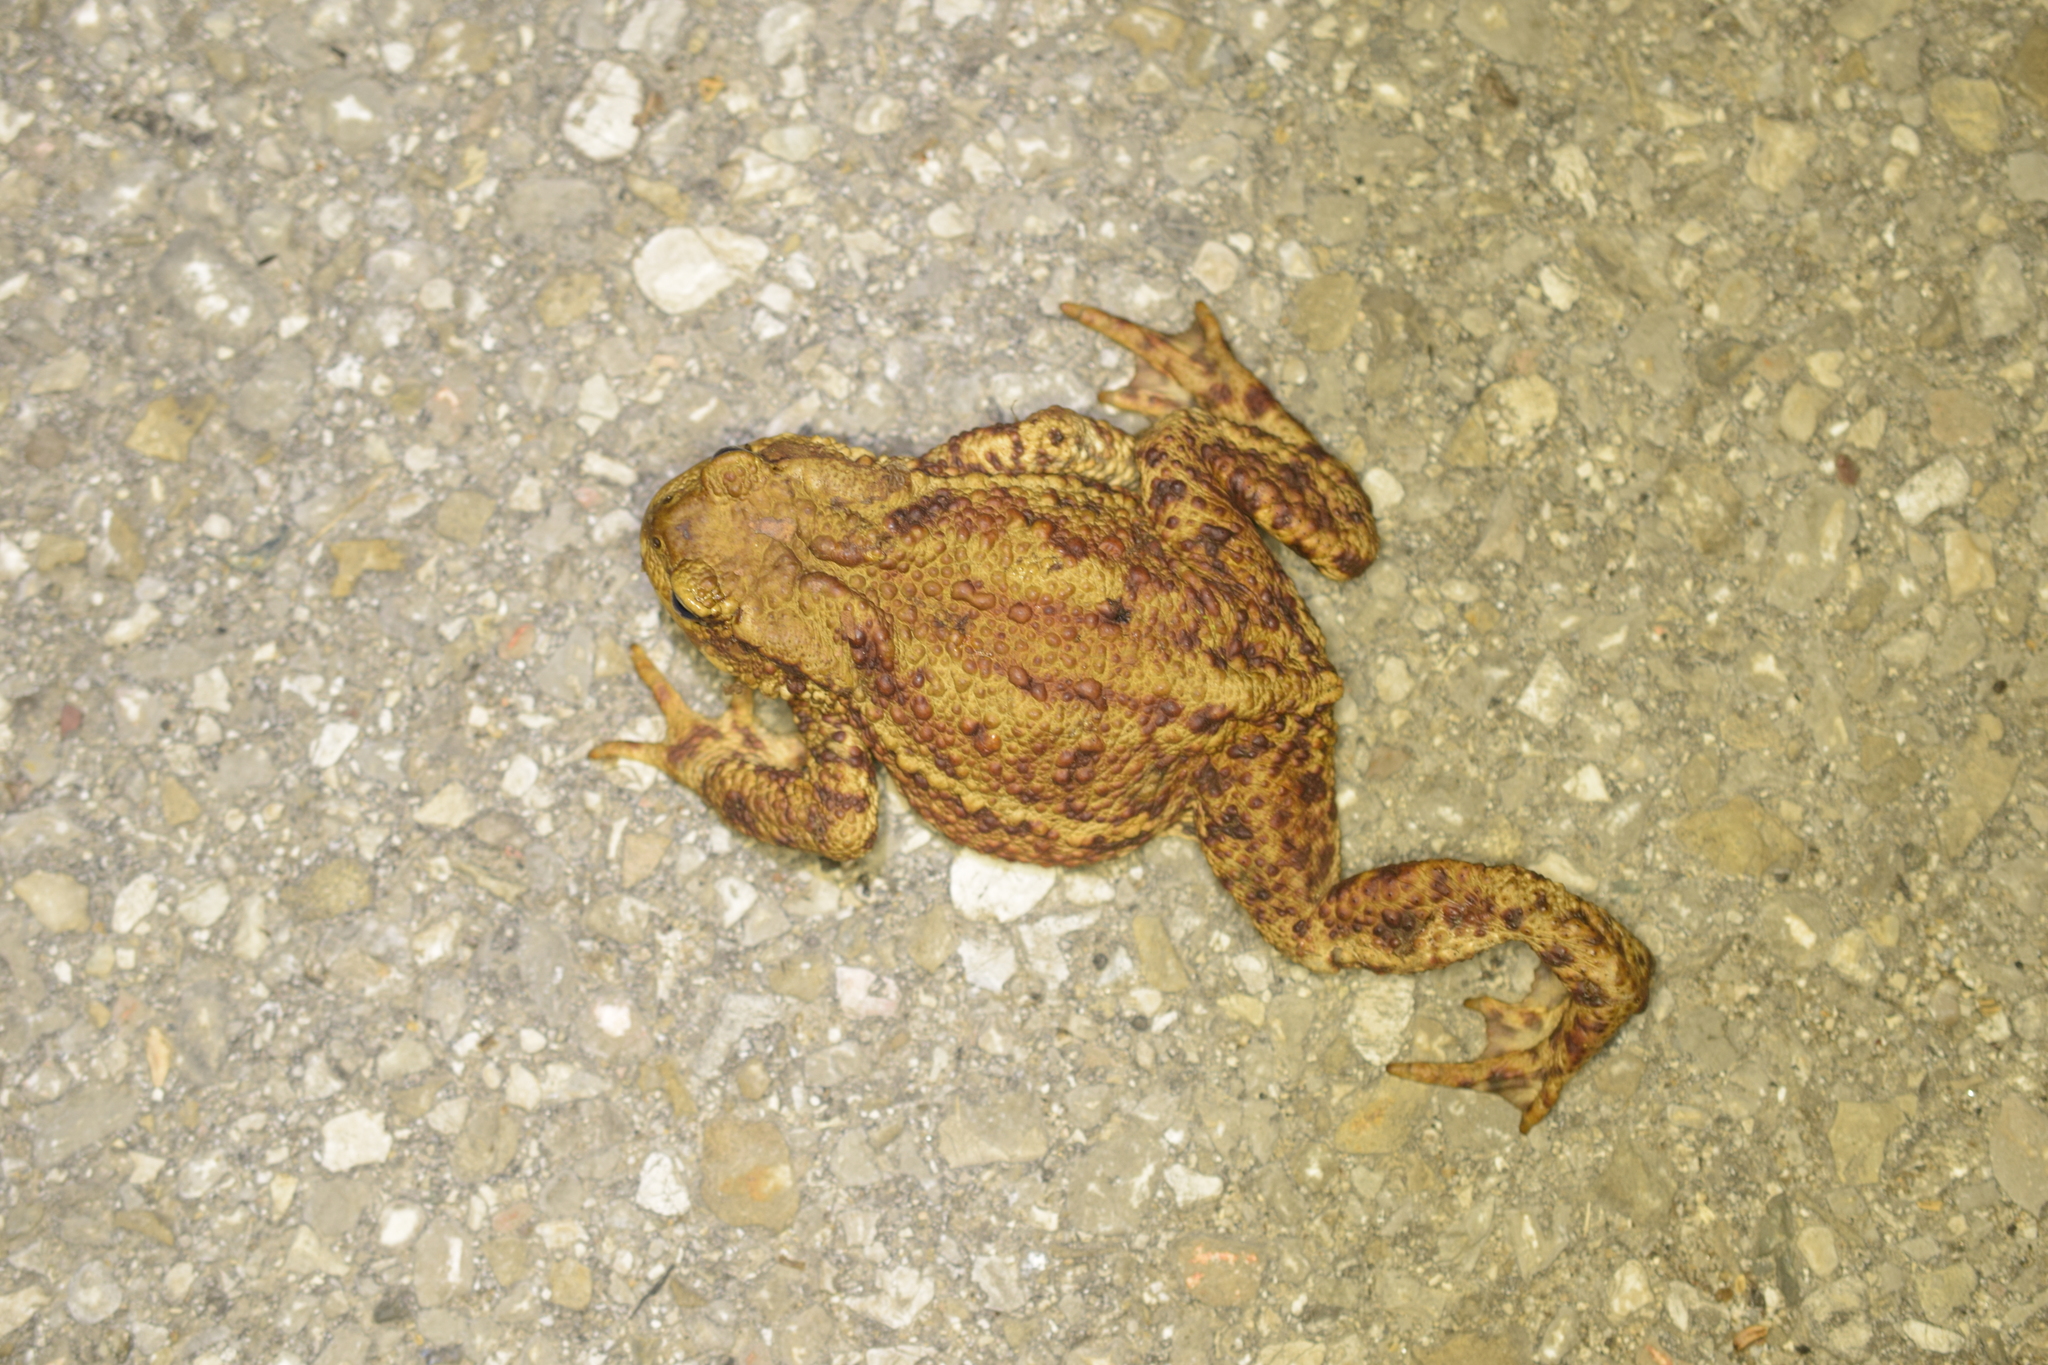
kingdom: Animalia
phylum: Chordata
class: Amphibia
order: Anura
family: Bufonidae
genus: Bufo
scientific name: Bufo bufo
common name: Common toad
